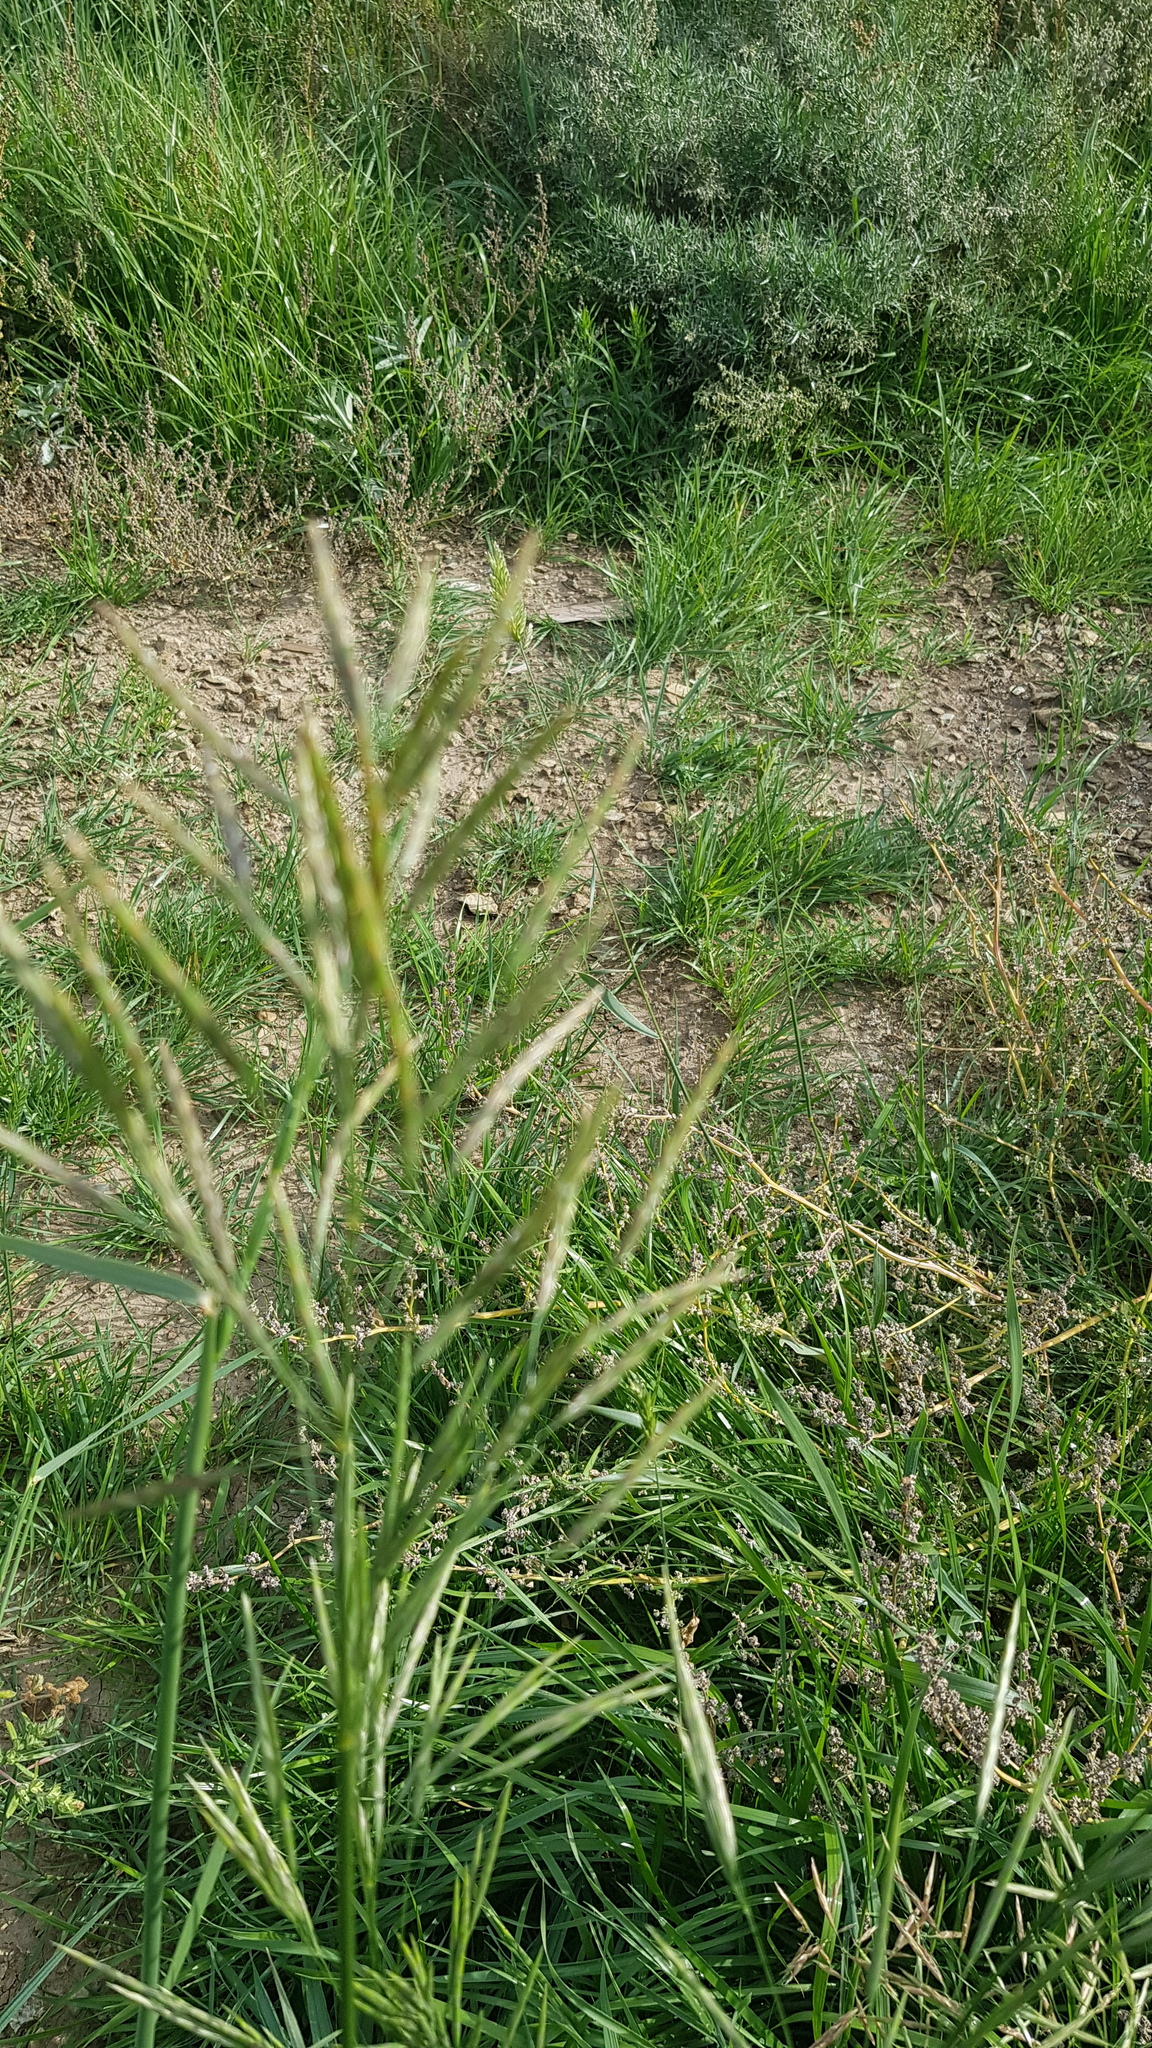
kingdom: Plantae
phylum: Tracheophyta
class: Liliopsida
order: Poales
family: Poaceae
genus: Bromus
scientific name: Bromus inermis
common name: Smooth brome
